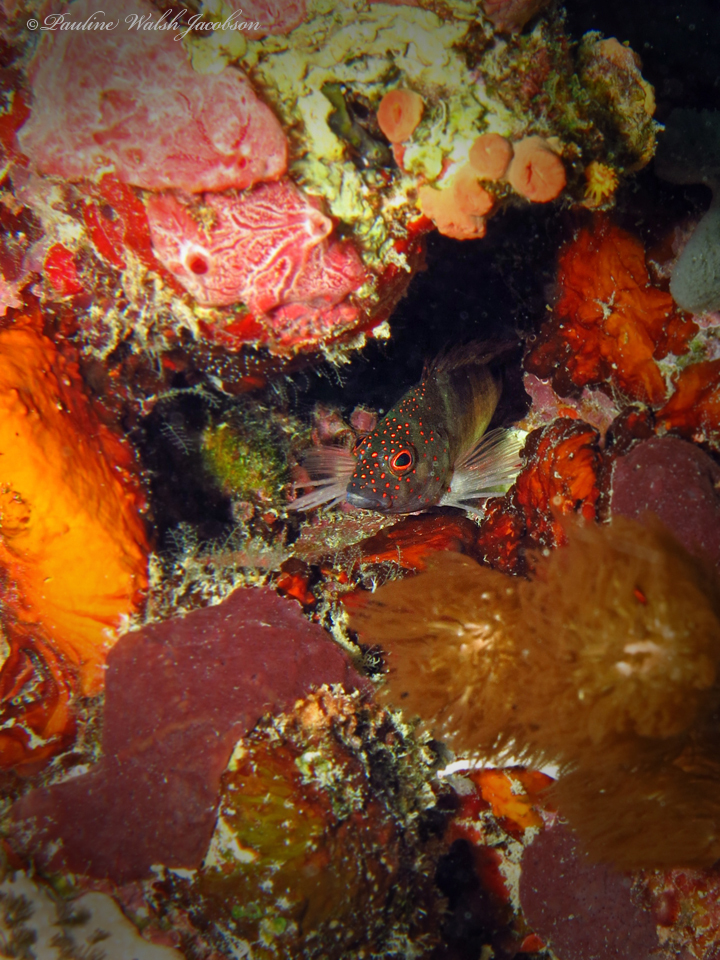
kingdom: Animalia
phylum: Chordata
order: Perciformes
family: Cirrhitidae
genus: Amblycirrhitus
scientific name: Amblycirrhitus pinos
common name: Redspotted hawkfish
